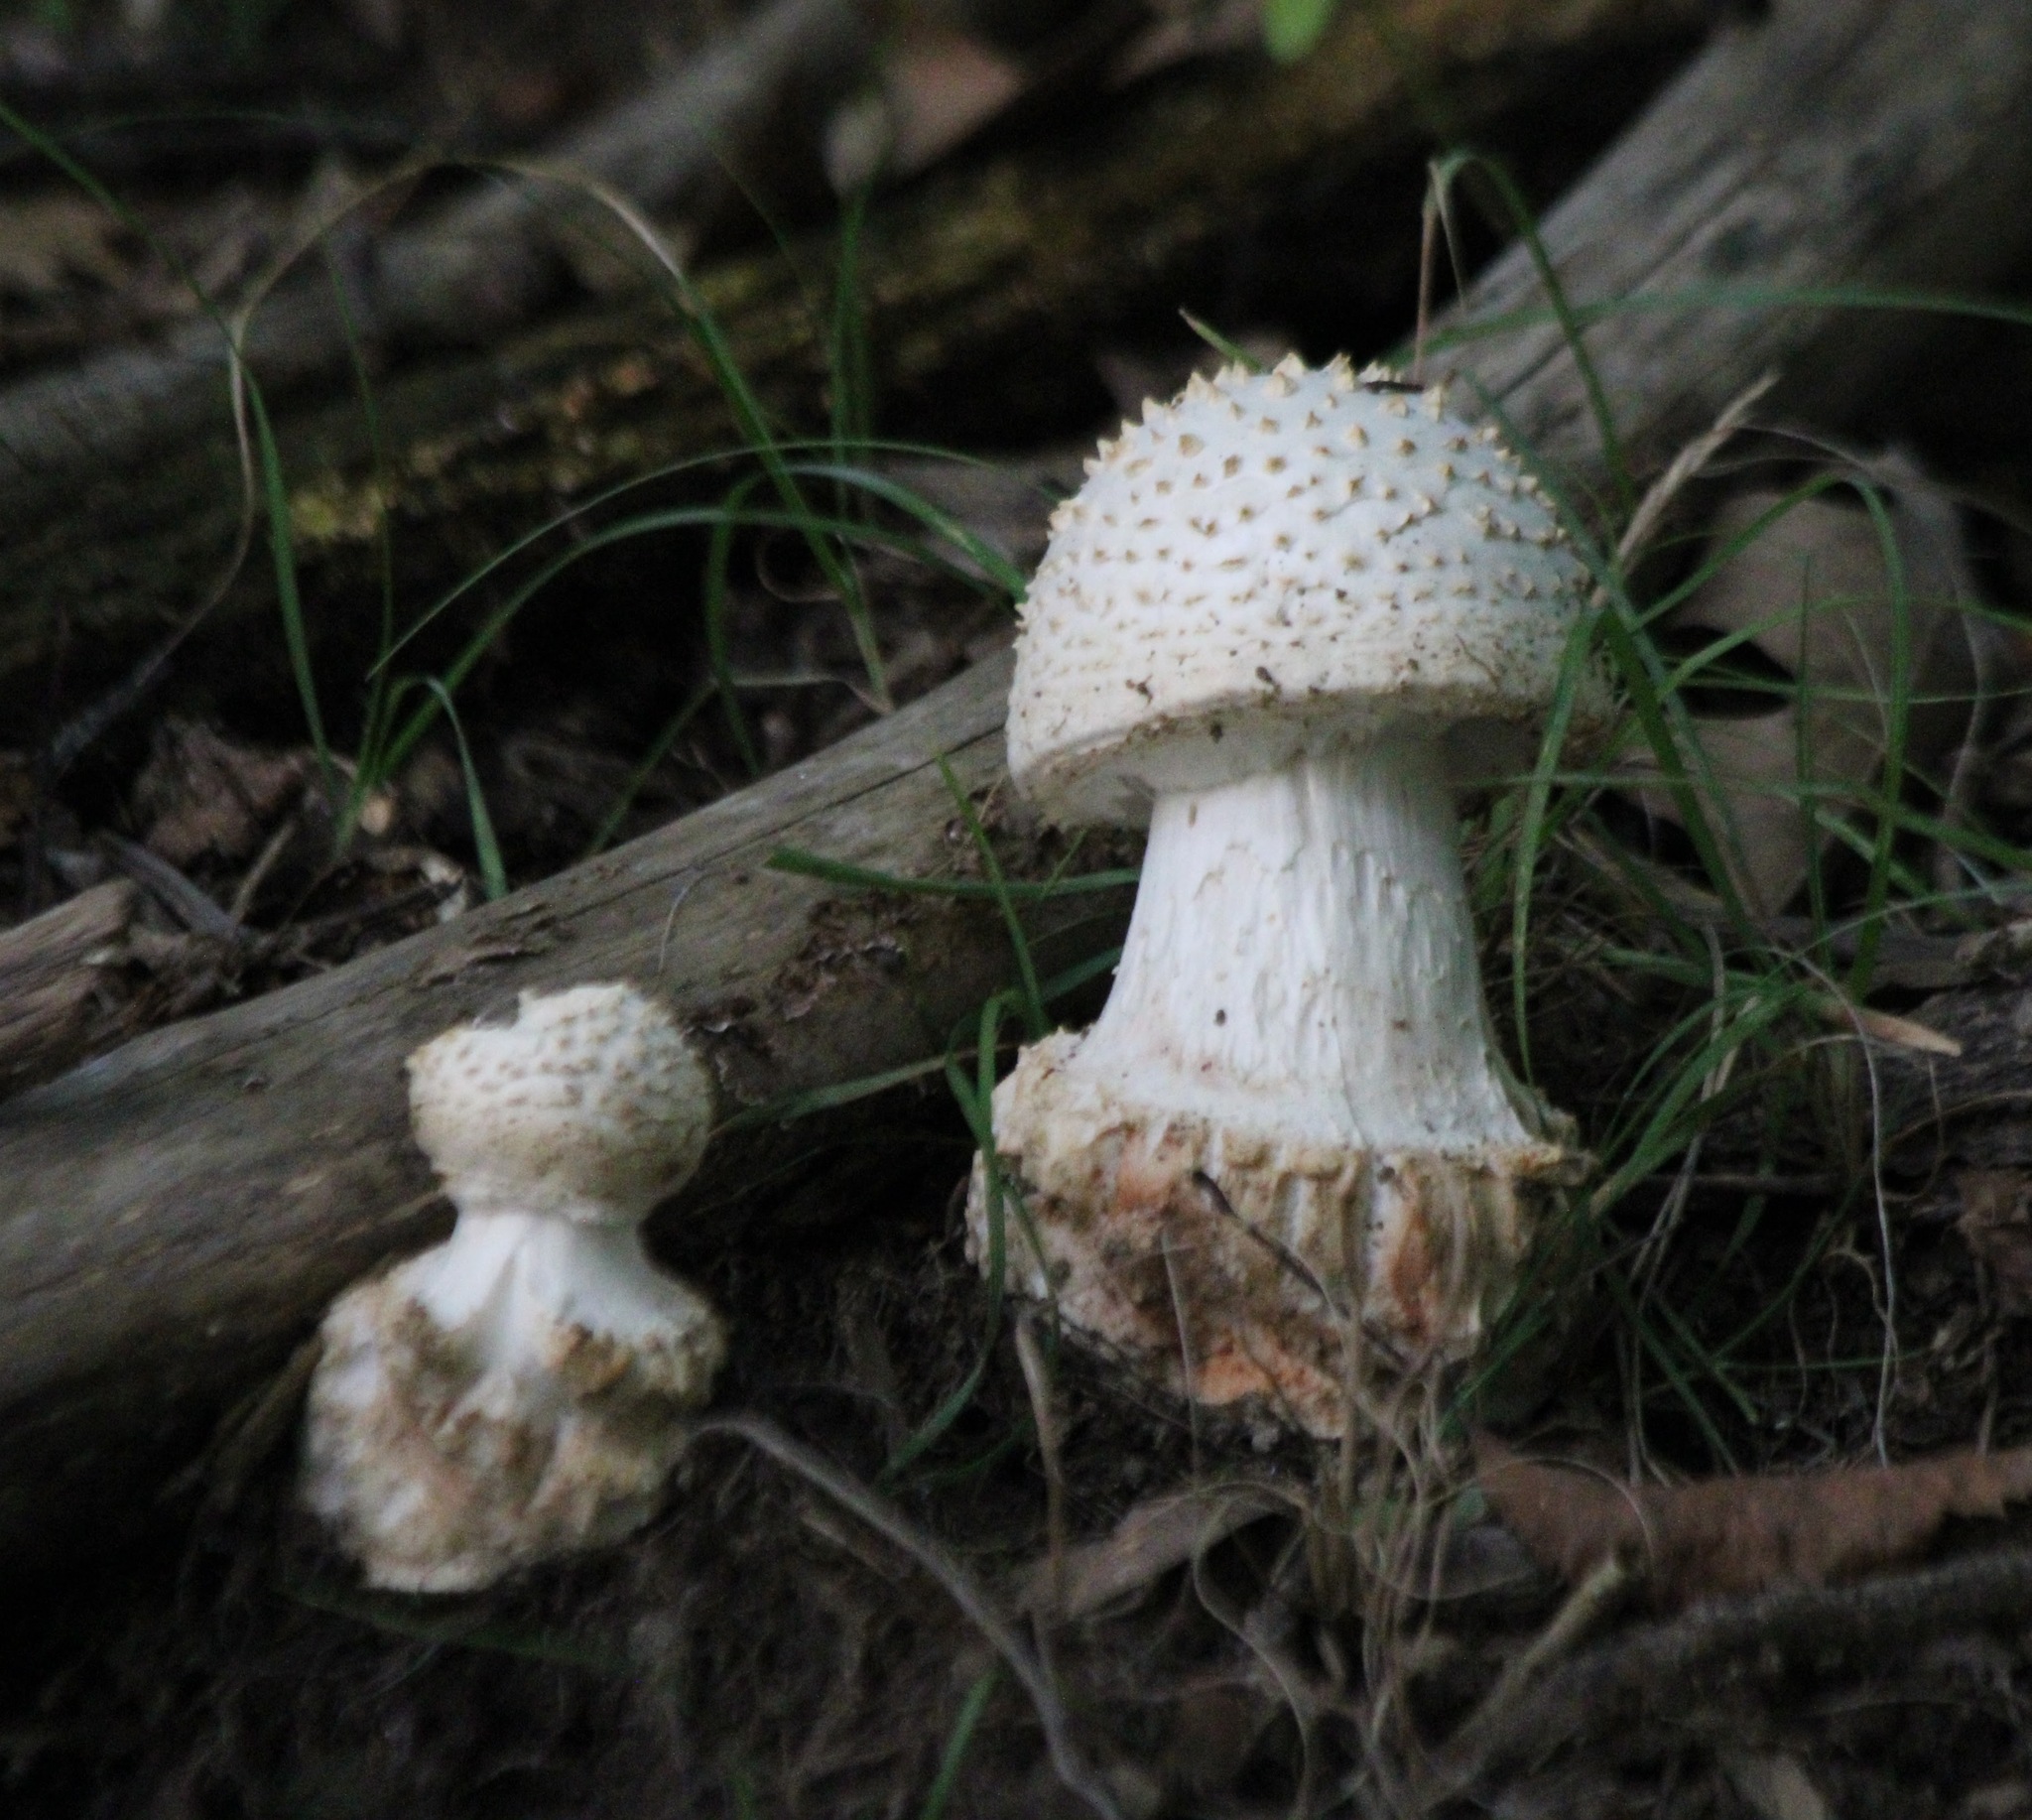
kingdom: Fungi
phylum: Basidiomycota
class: Agaricomycetes
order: Agaricales
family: Amanitaceae
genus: Amanita
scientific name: Amanita abrupta
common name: American abrupt-bulbed lepidella
